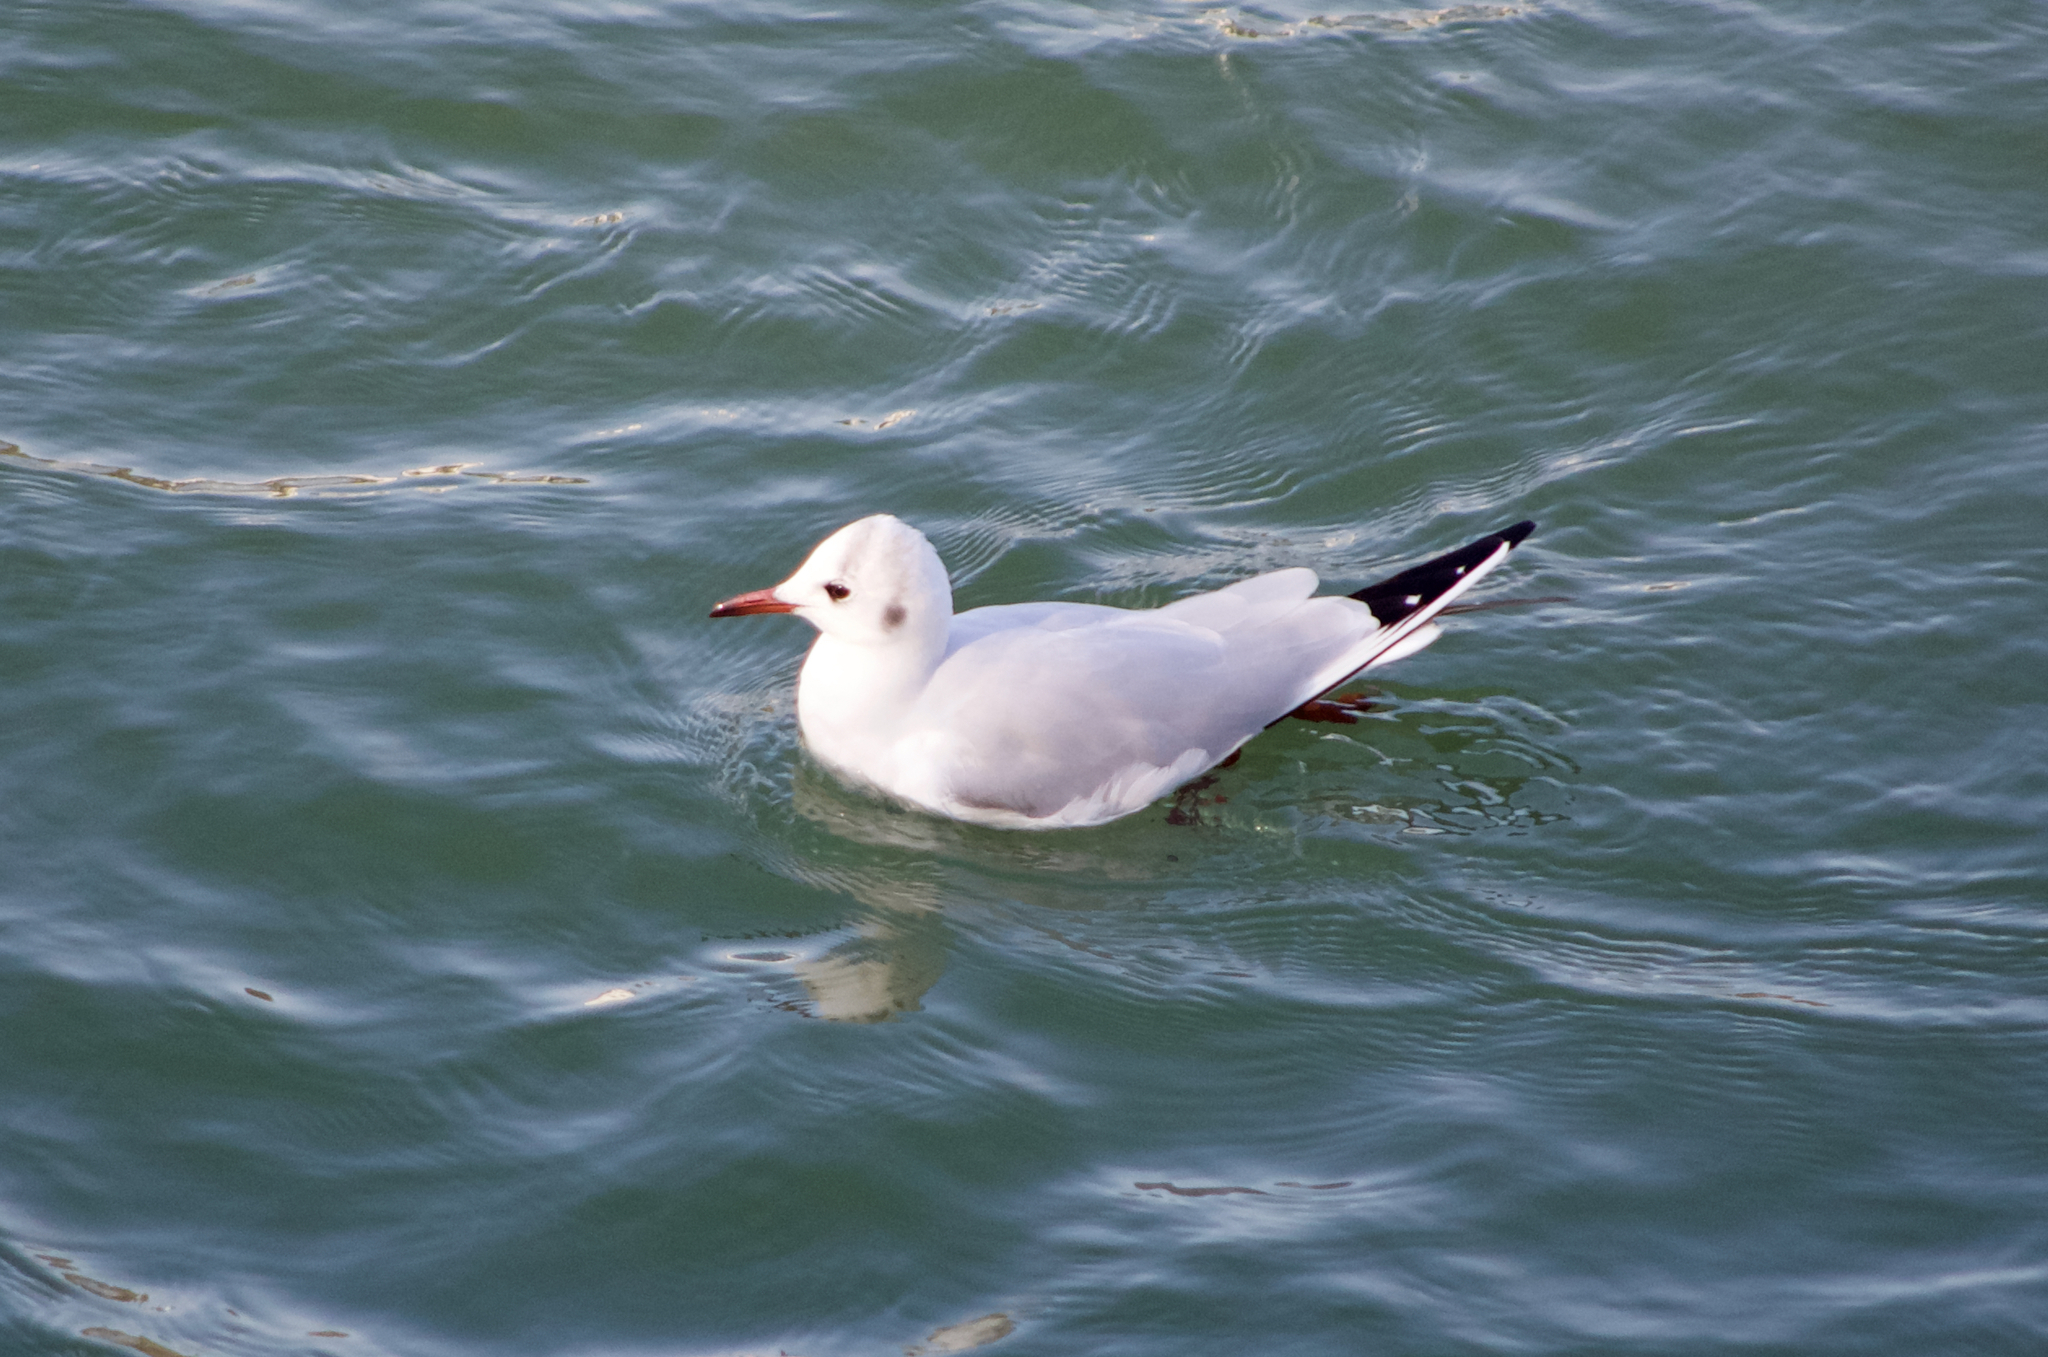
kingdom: Animalia
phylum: Chordata
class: Aves
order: Charadriiformes
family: Laridae
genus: Chroicocephalus
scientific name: Chroicocephalus ridibundus
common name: Black-headed gull
